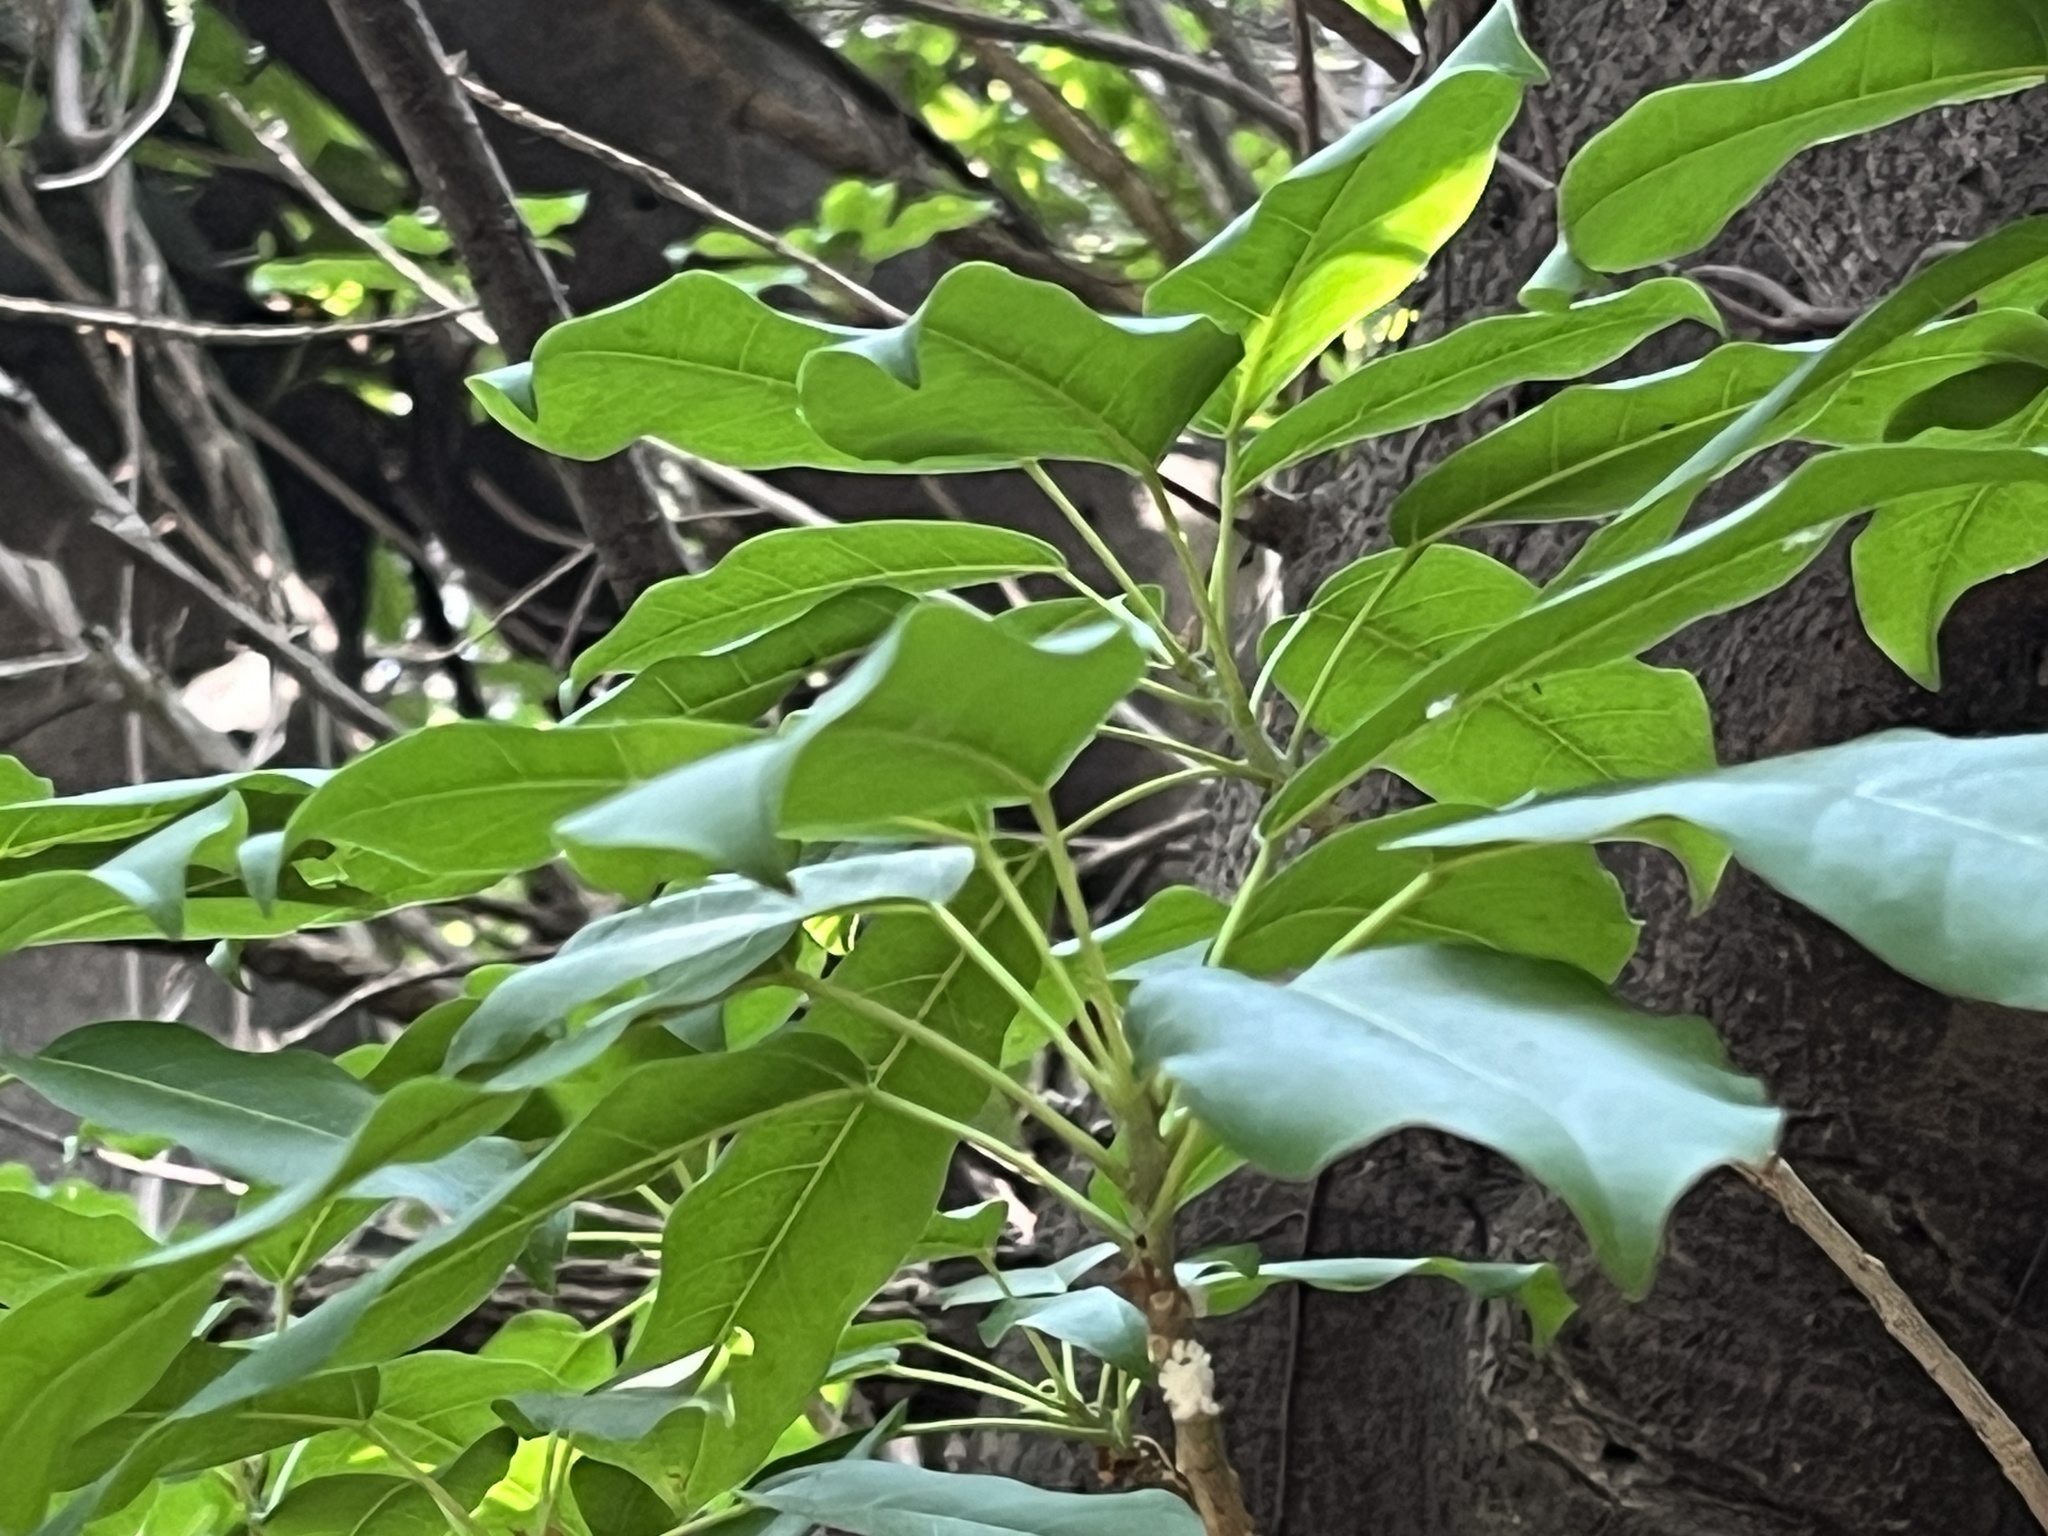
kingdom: Plantae
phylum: Tracheophyta
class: Magnoliopsida
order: Malpighiales
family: Euphorbiaceae
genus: Triadica
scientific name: Triadica sebifera
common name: Chinese tallow
